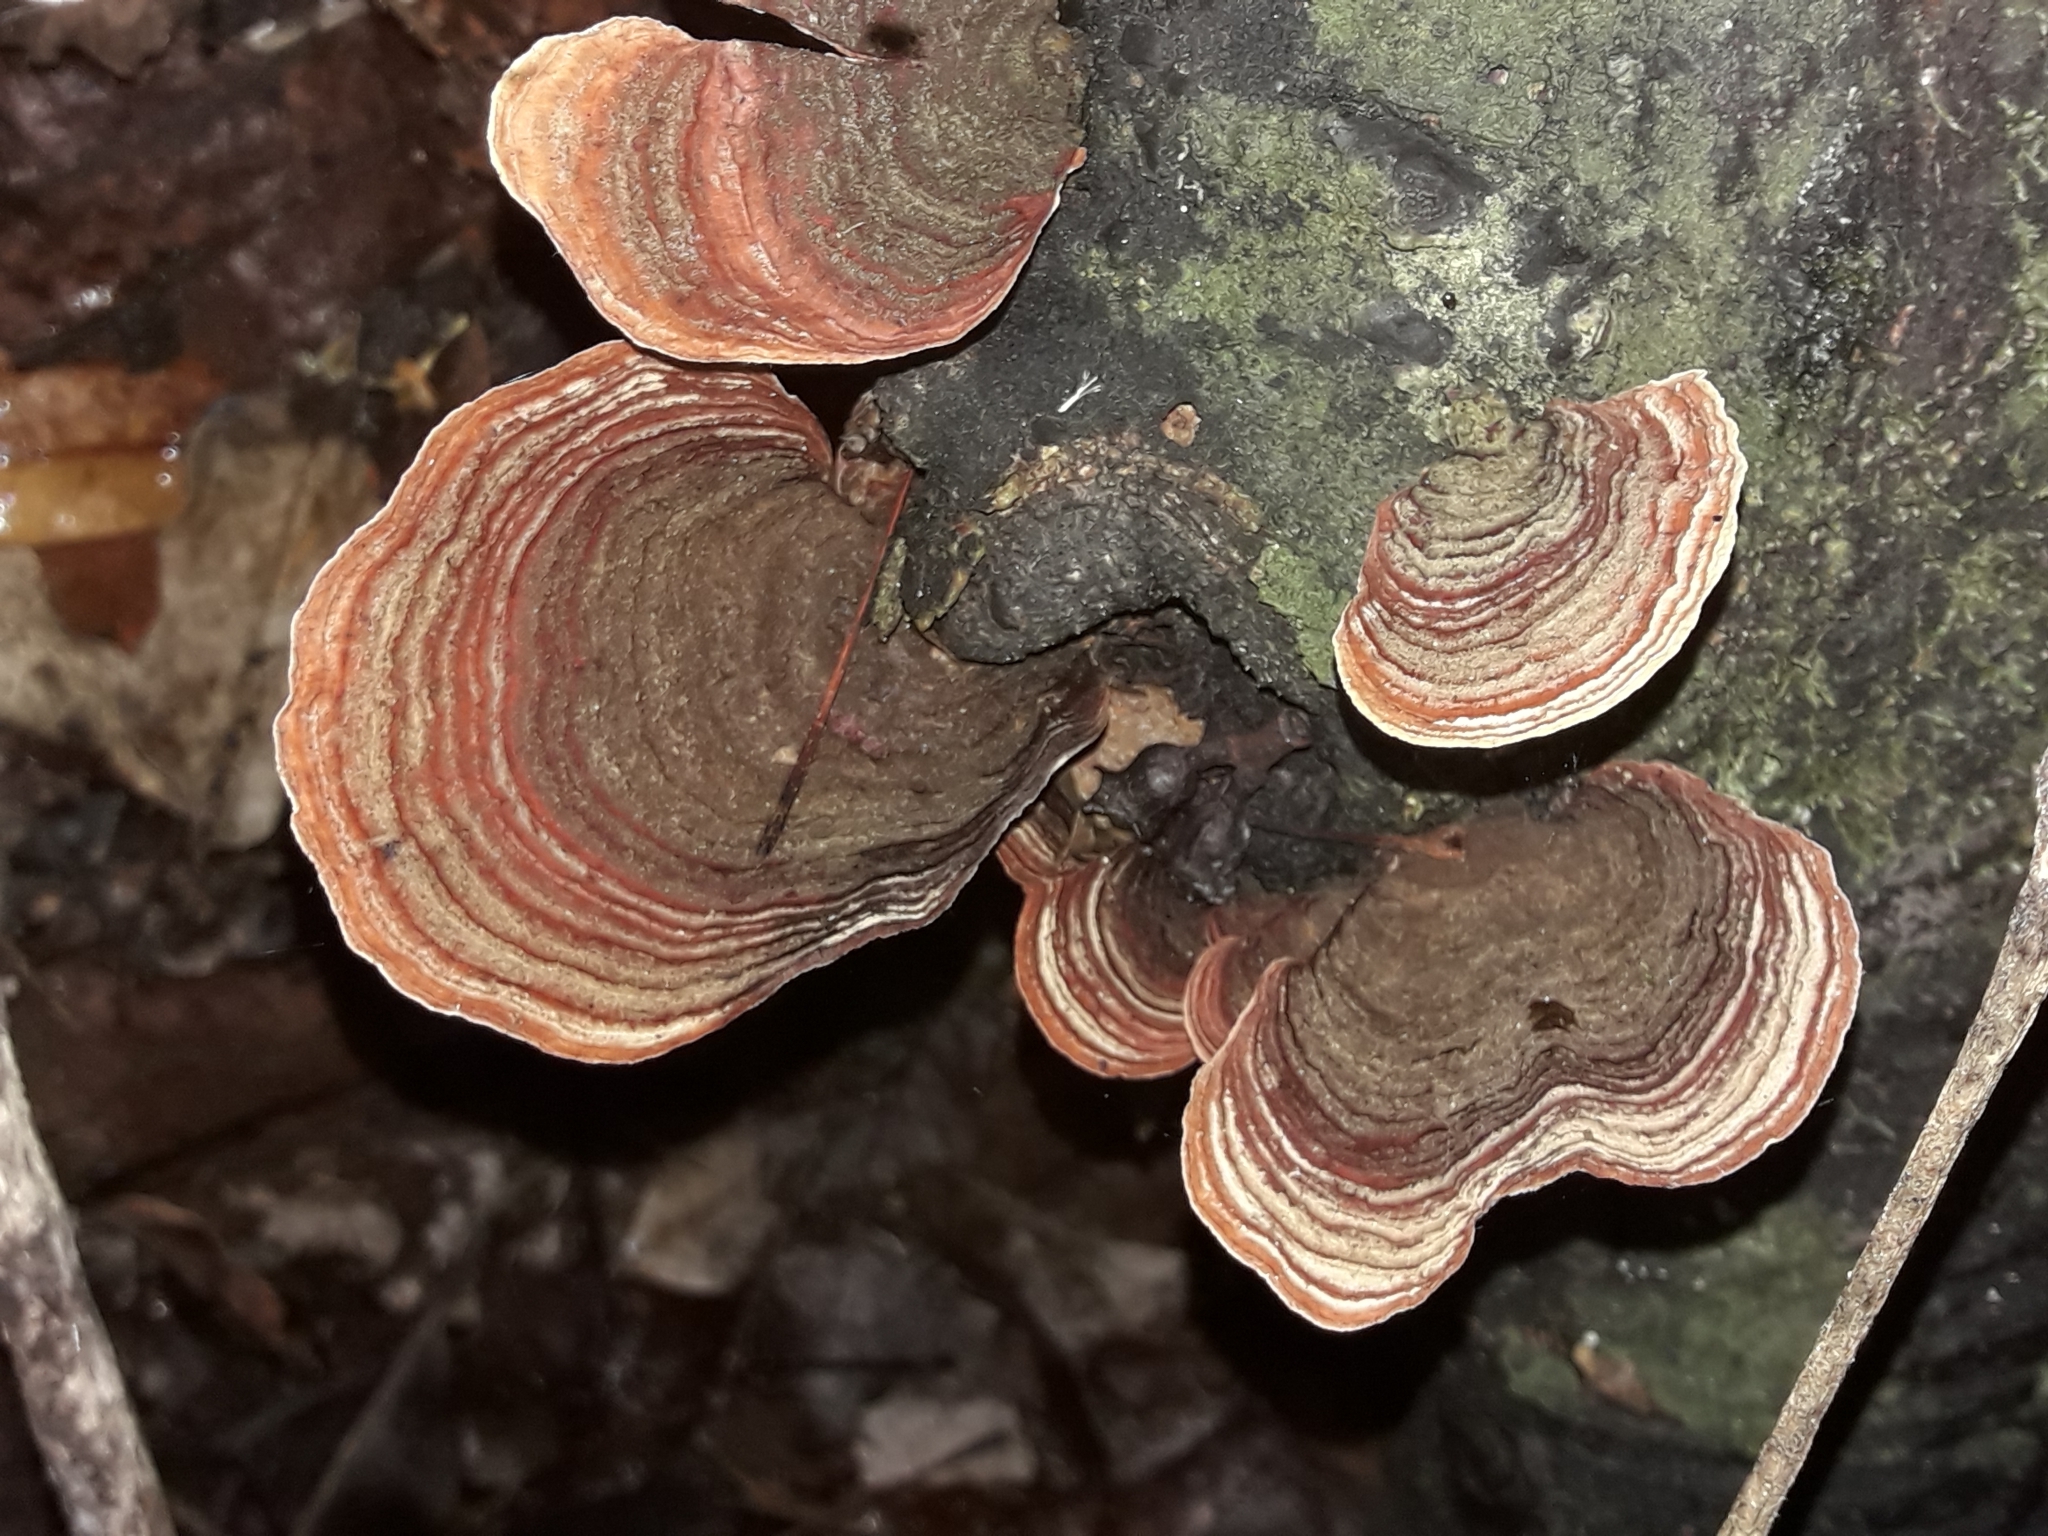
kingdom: Fungi
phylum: Basidiomycota
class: Agaricomycetes
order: Russulales
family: Stereaceae
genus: Stereum
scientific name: Stereum versicolor
